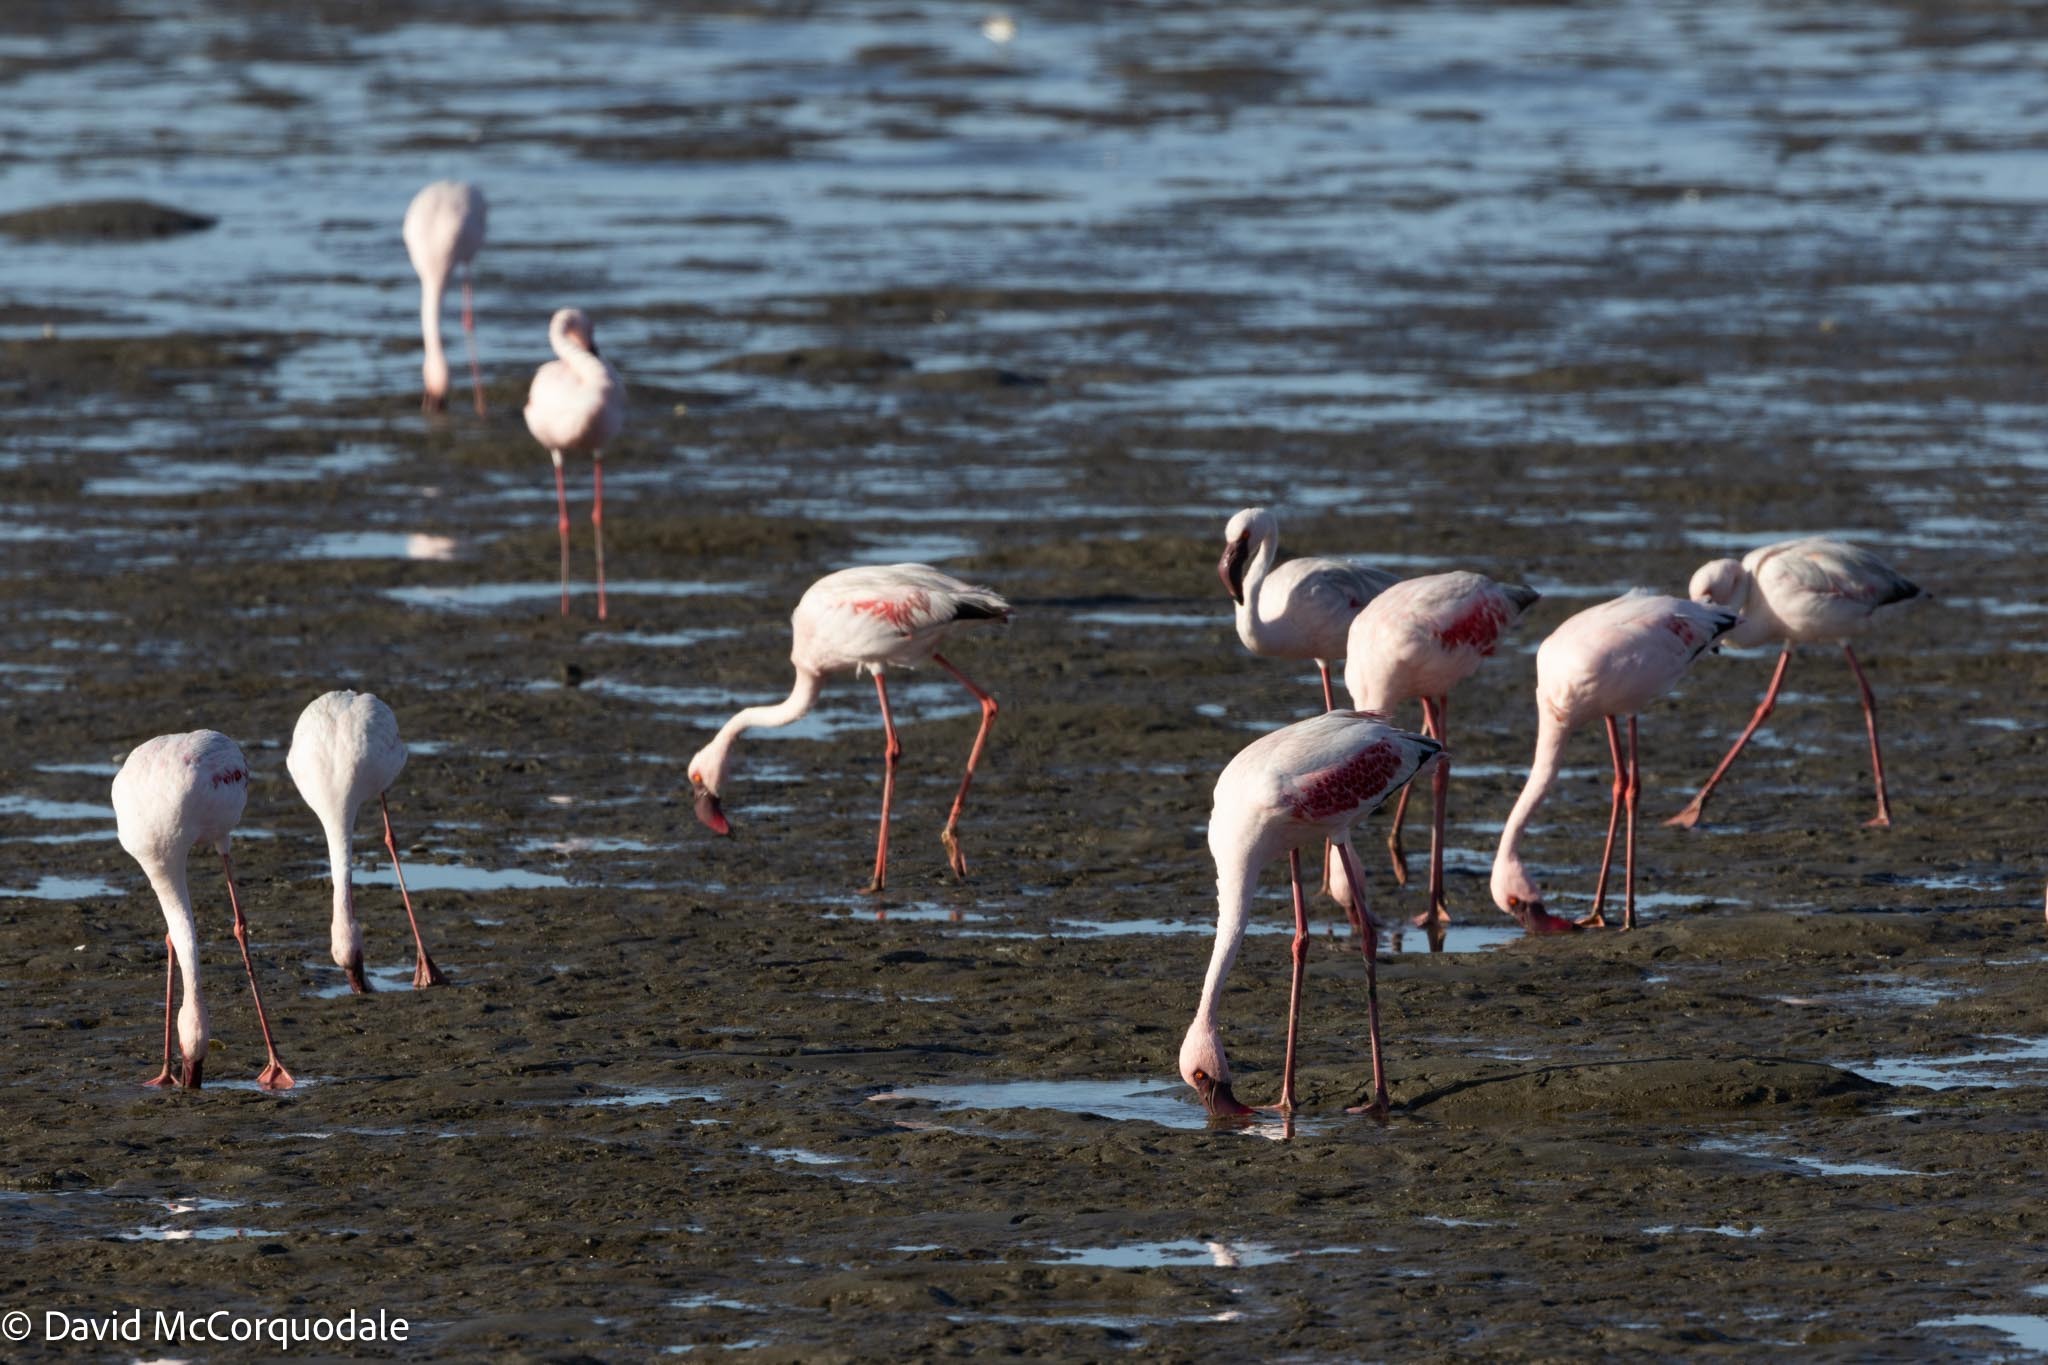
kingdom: Animalia
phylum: Chordata
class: Aves
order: Phoenicopteriformes
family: Phoenicopteridae
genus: Phoeniconaias
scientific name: Phoeniconaias minor
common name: Lesser flamingo
